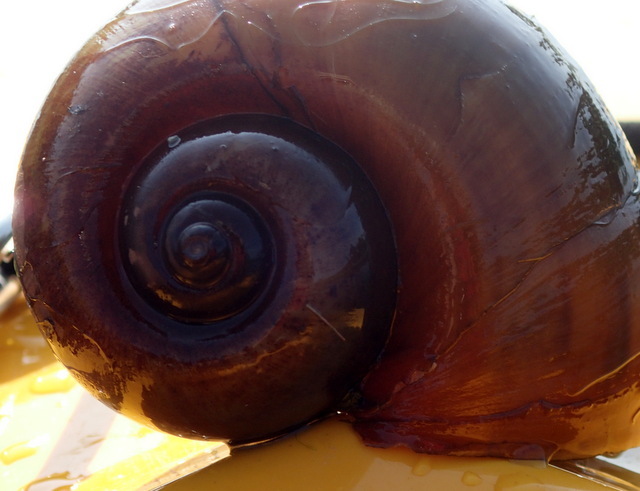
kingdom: Animalia
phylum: Mollusca
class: Gastropoda
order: Architaenioglossa
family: Ampullariidae
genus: Pomacea
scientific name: Pomacea maculata
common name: Giant applesnail
